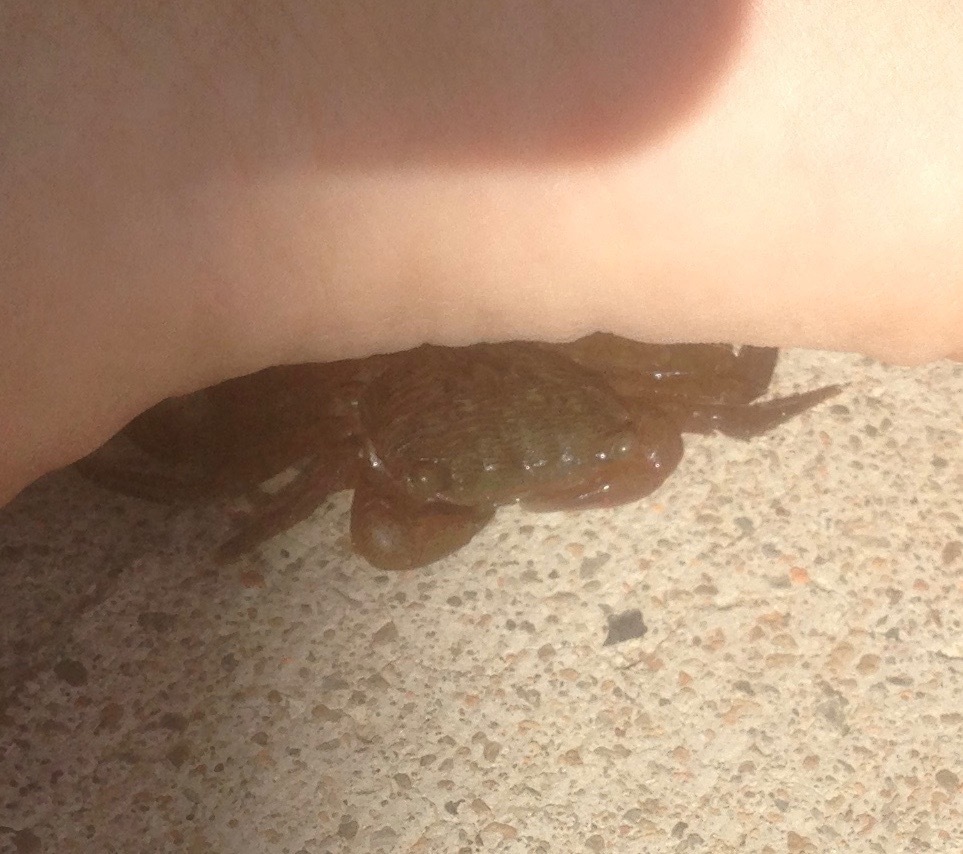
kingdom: Animalia
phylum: Arthropoda
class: Malacostraca
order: Decapoda
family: Grapsidae
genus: Pachygrapsus
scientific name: Pachygrapsus crassipes
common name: Striped shore crab
